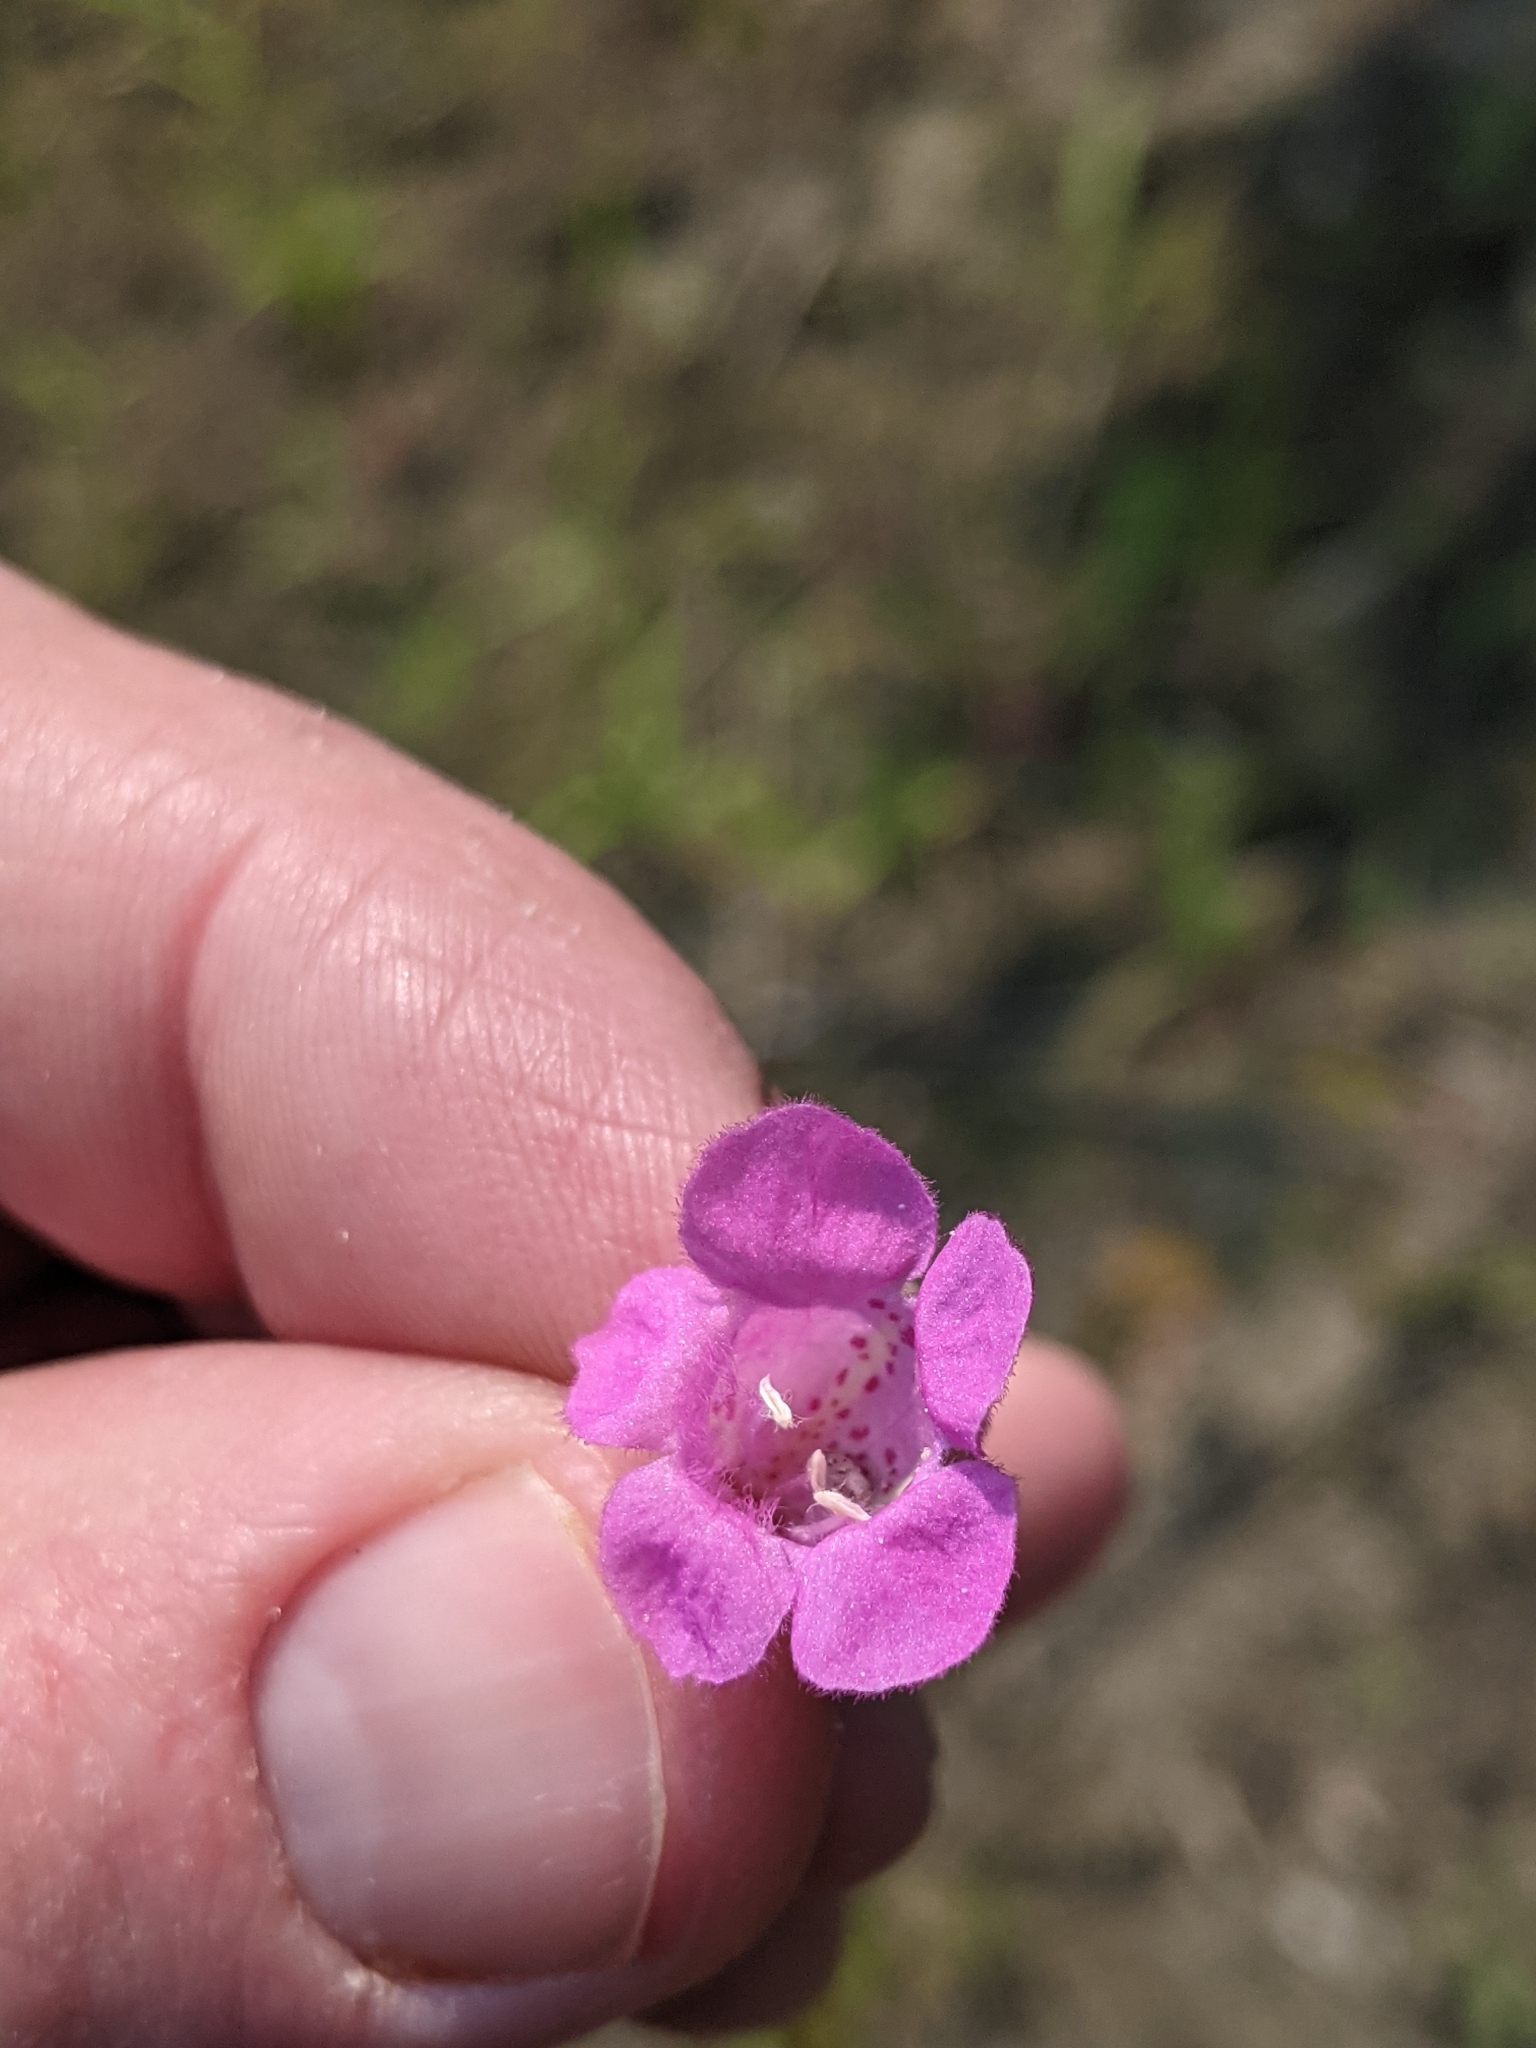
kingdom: Plantae
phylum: Tracheophyta
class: Magnoliopsida
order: Lamiales
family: Orobanchaceae
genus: Agalinis
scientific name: Agalinis purpurea
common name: Purple false foxglove
